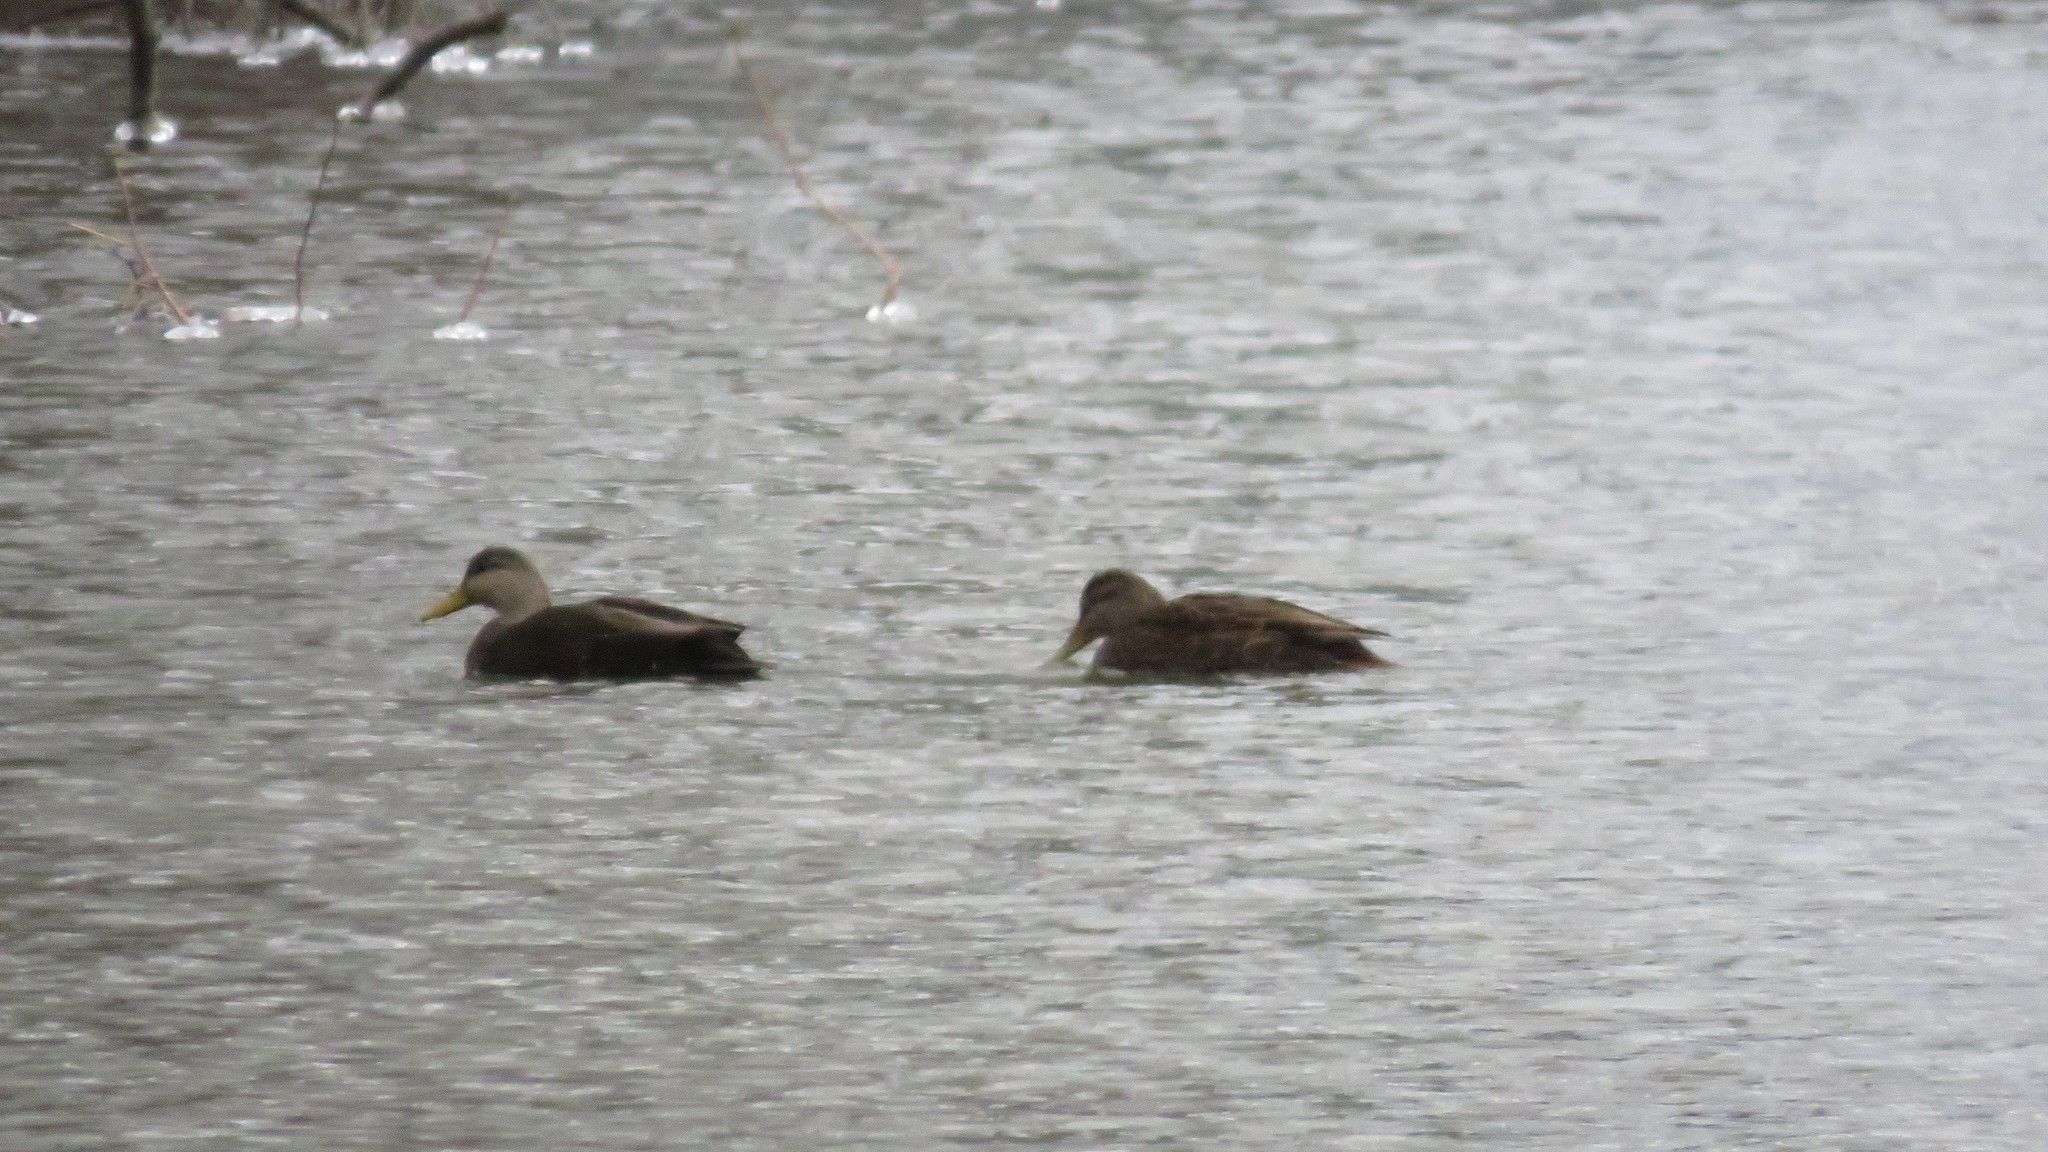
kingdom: Animalia
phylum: Chordata
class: Aves
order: Anseriformes
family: Anatidae
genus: Anas
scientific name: Anas rubripes
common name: American black duck
